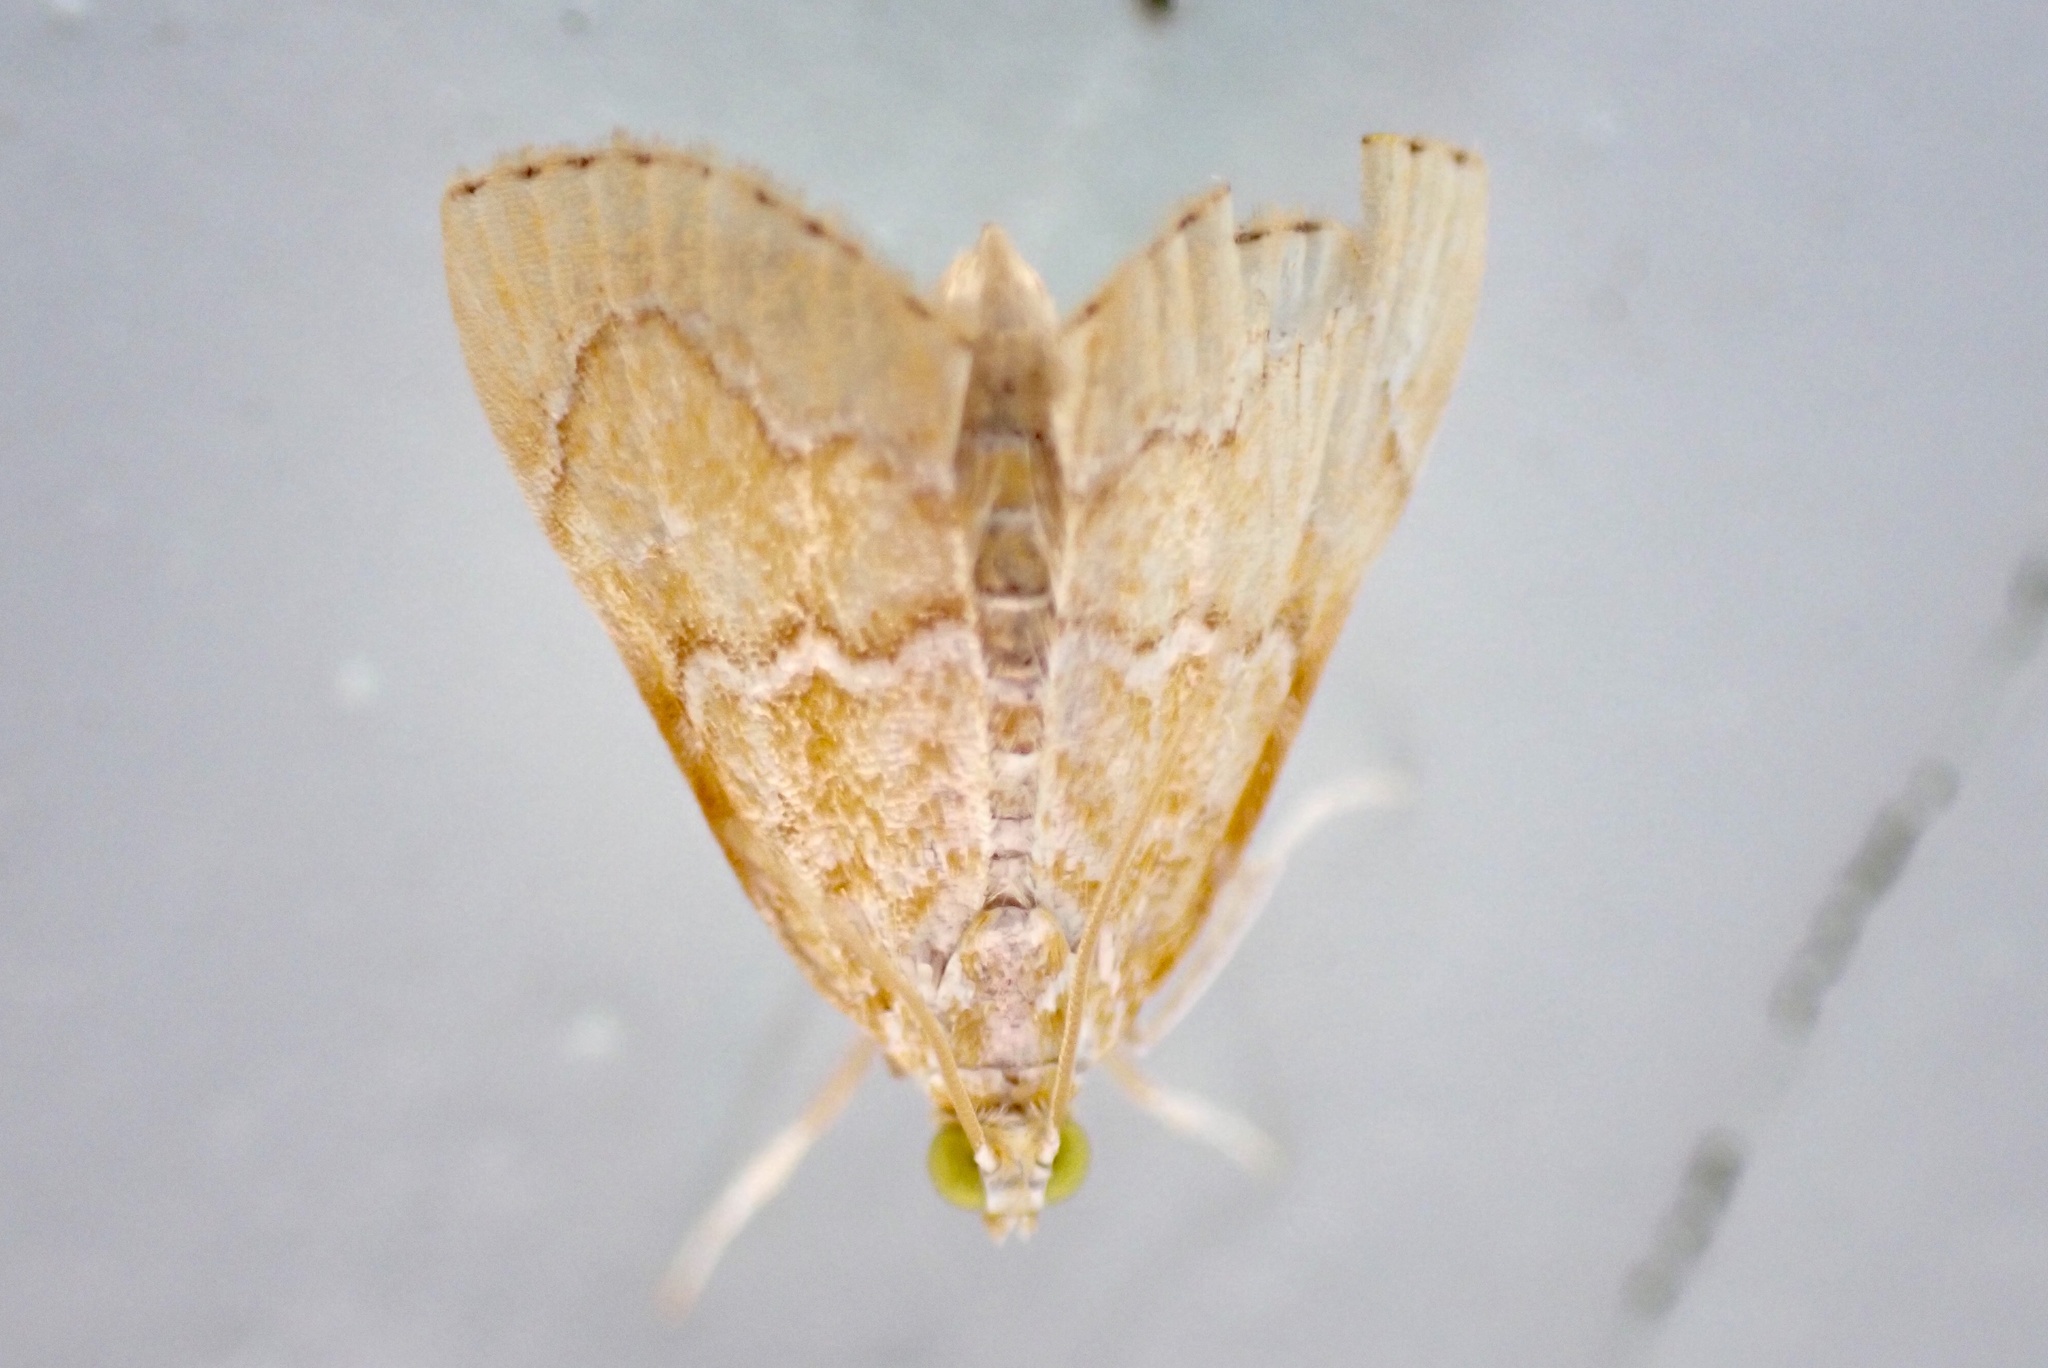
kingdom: Animalia
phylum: Arthropoda
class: Insecta
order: Lepidoptera
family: Crambidae
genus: Glaphyria
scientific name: Glaphyria glaphyralis
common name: Common glaphyria moth
